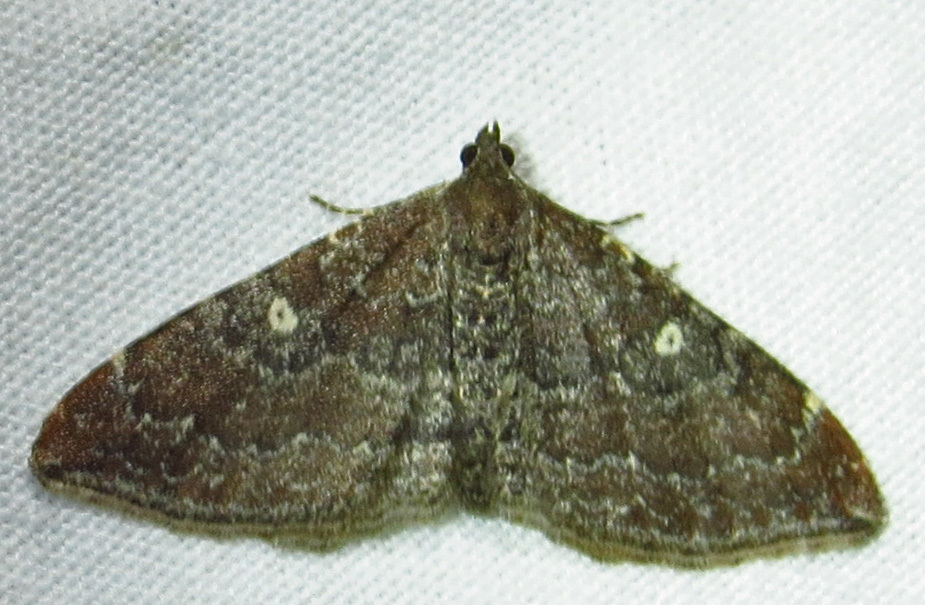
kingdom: Animalia
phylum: Arthropoda
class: Insecta
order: Lepidoptera
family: Geometridae
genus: Orthonama
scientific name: Orthonama obstipata
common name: The gem
